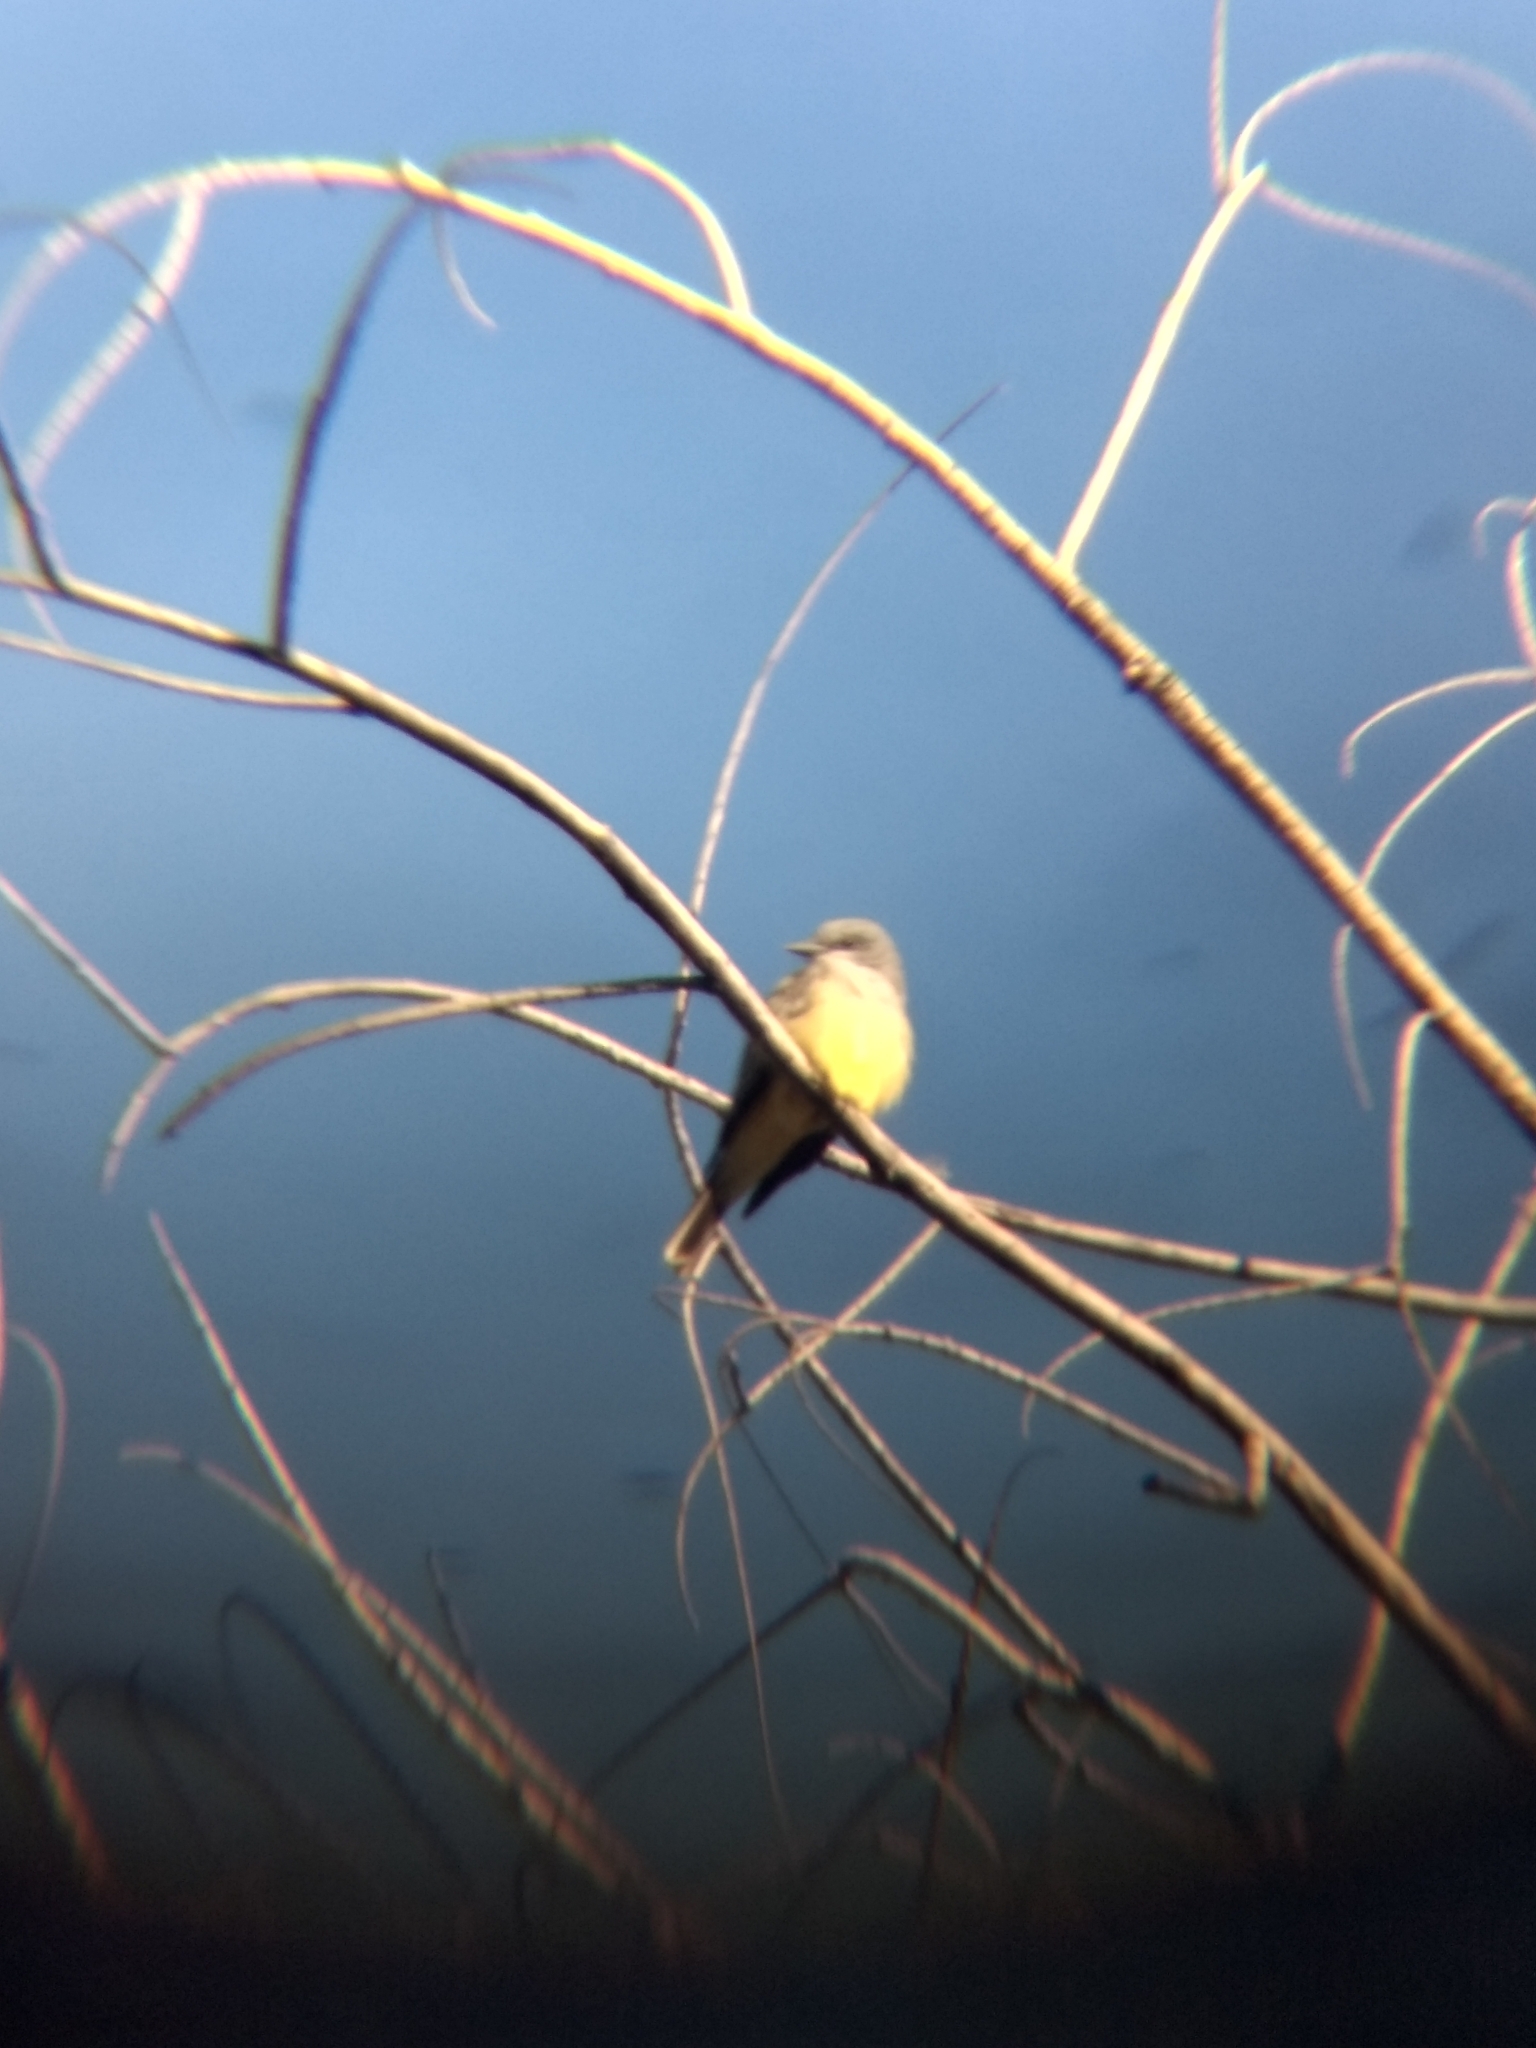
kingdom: Animalia
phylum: Chordata
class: Aves
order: Passeriformes
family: Tyrannidae
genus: Tyrannus
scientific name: Tyrannus verticalis
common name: Western kingbird
